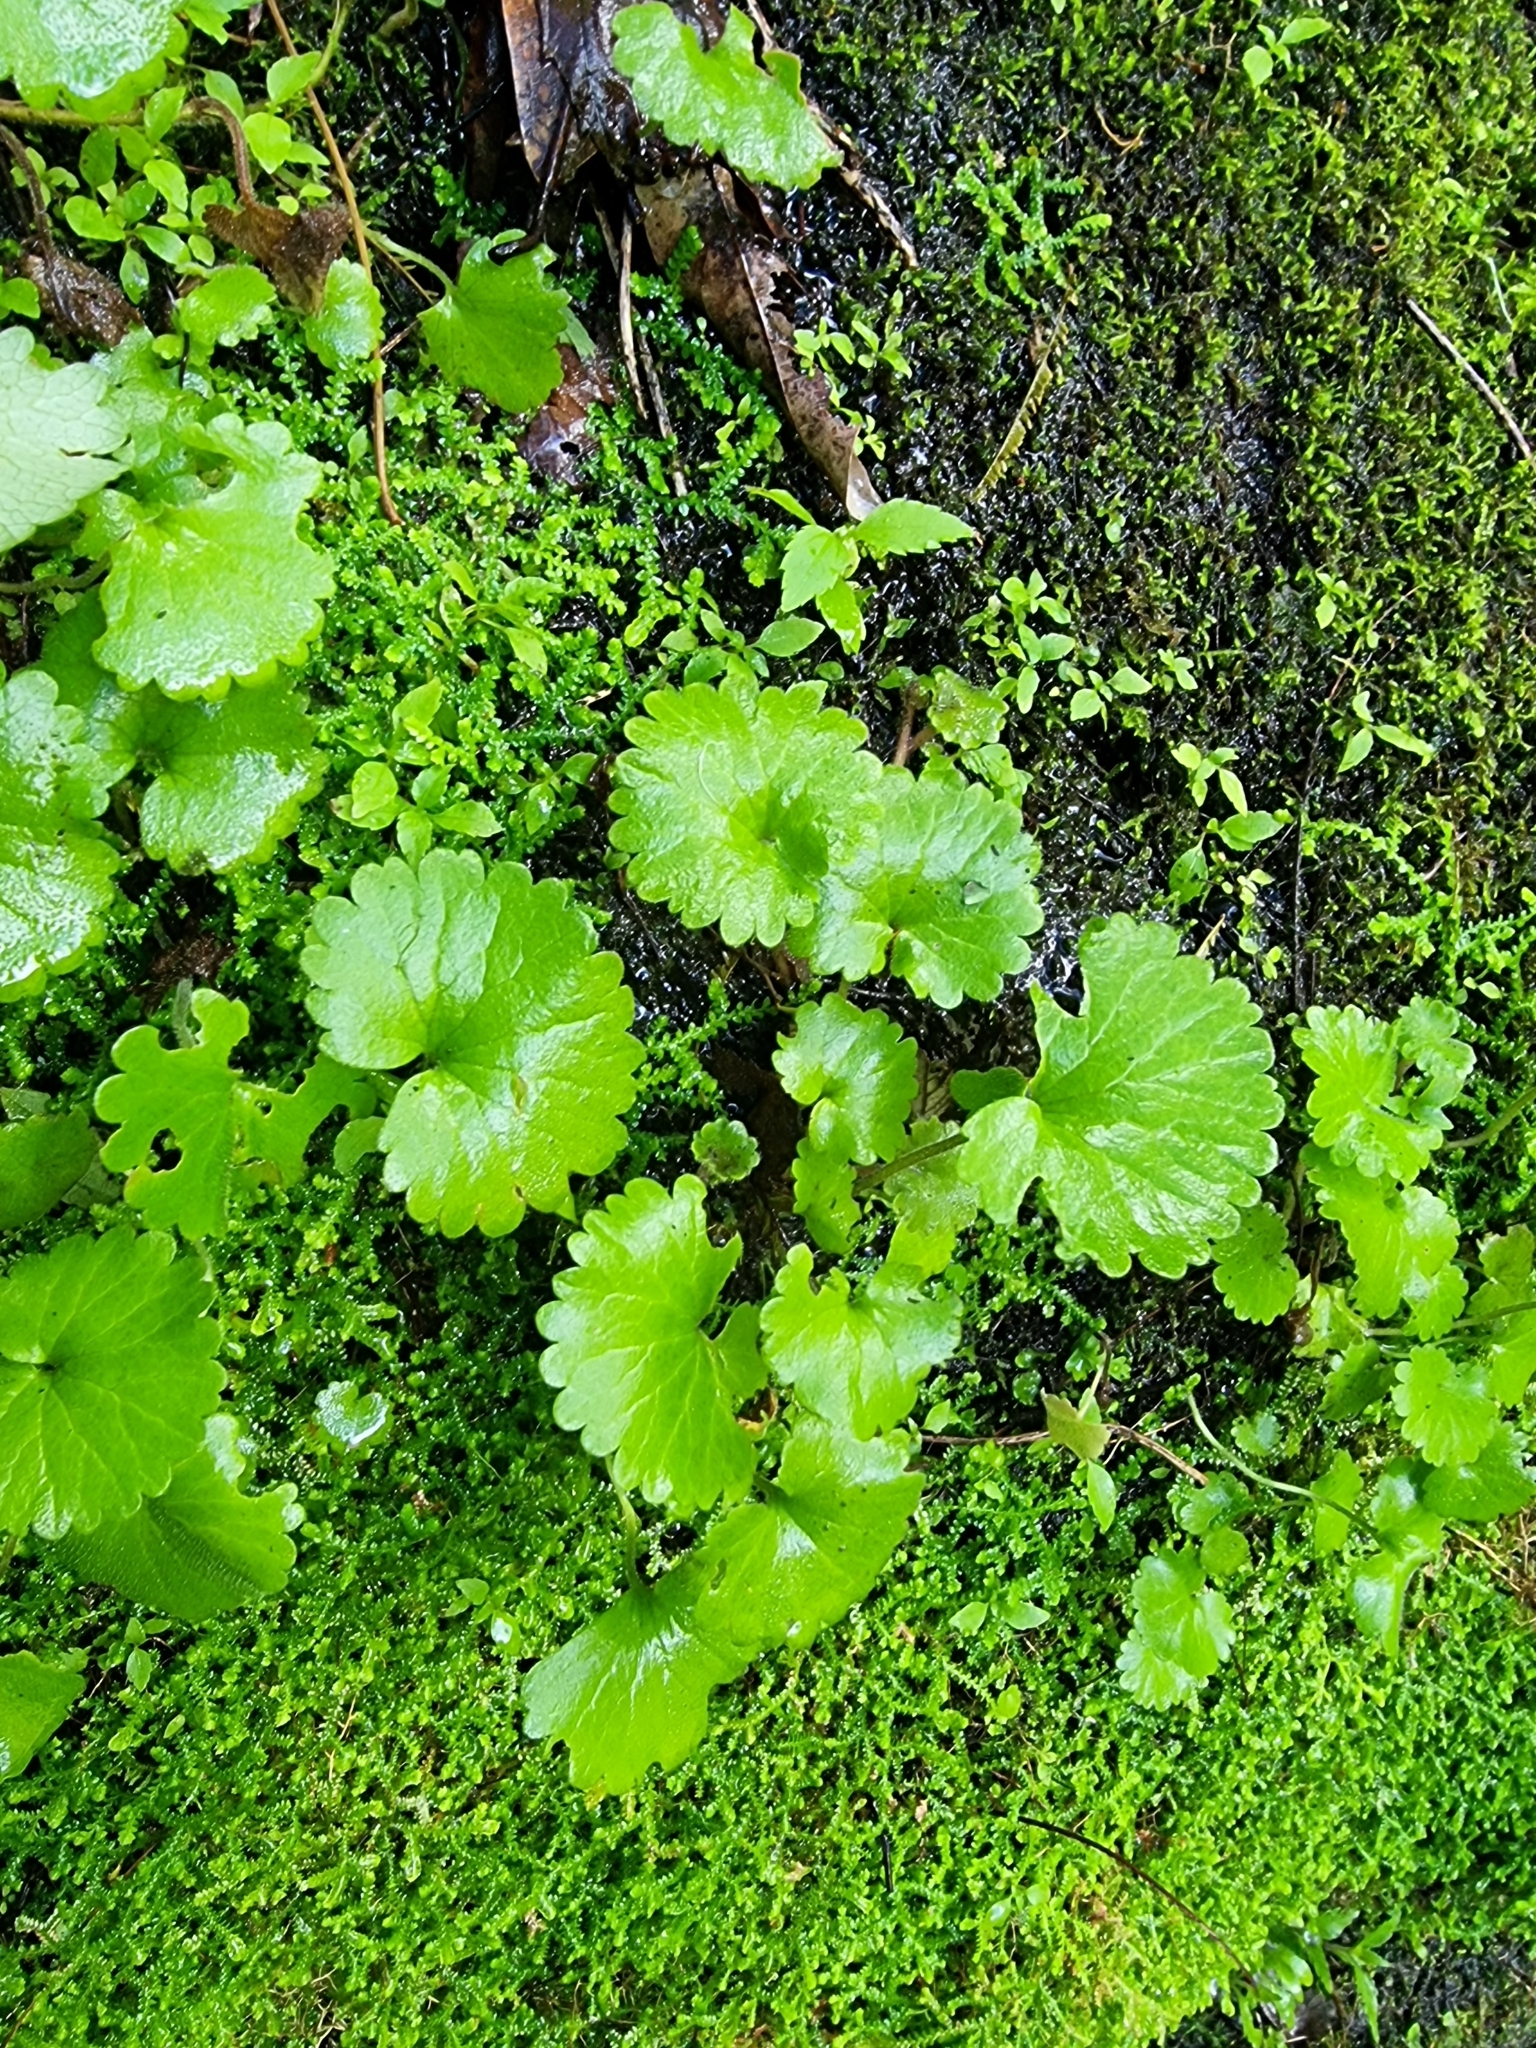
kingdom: Plantae
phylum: Tracheophyta
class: Magnoliopsida
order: Lamiales
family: Plantaginaceae
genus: Sibthorpia
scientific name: Sibthorpia peregrina
